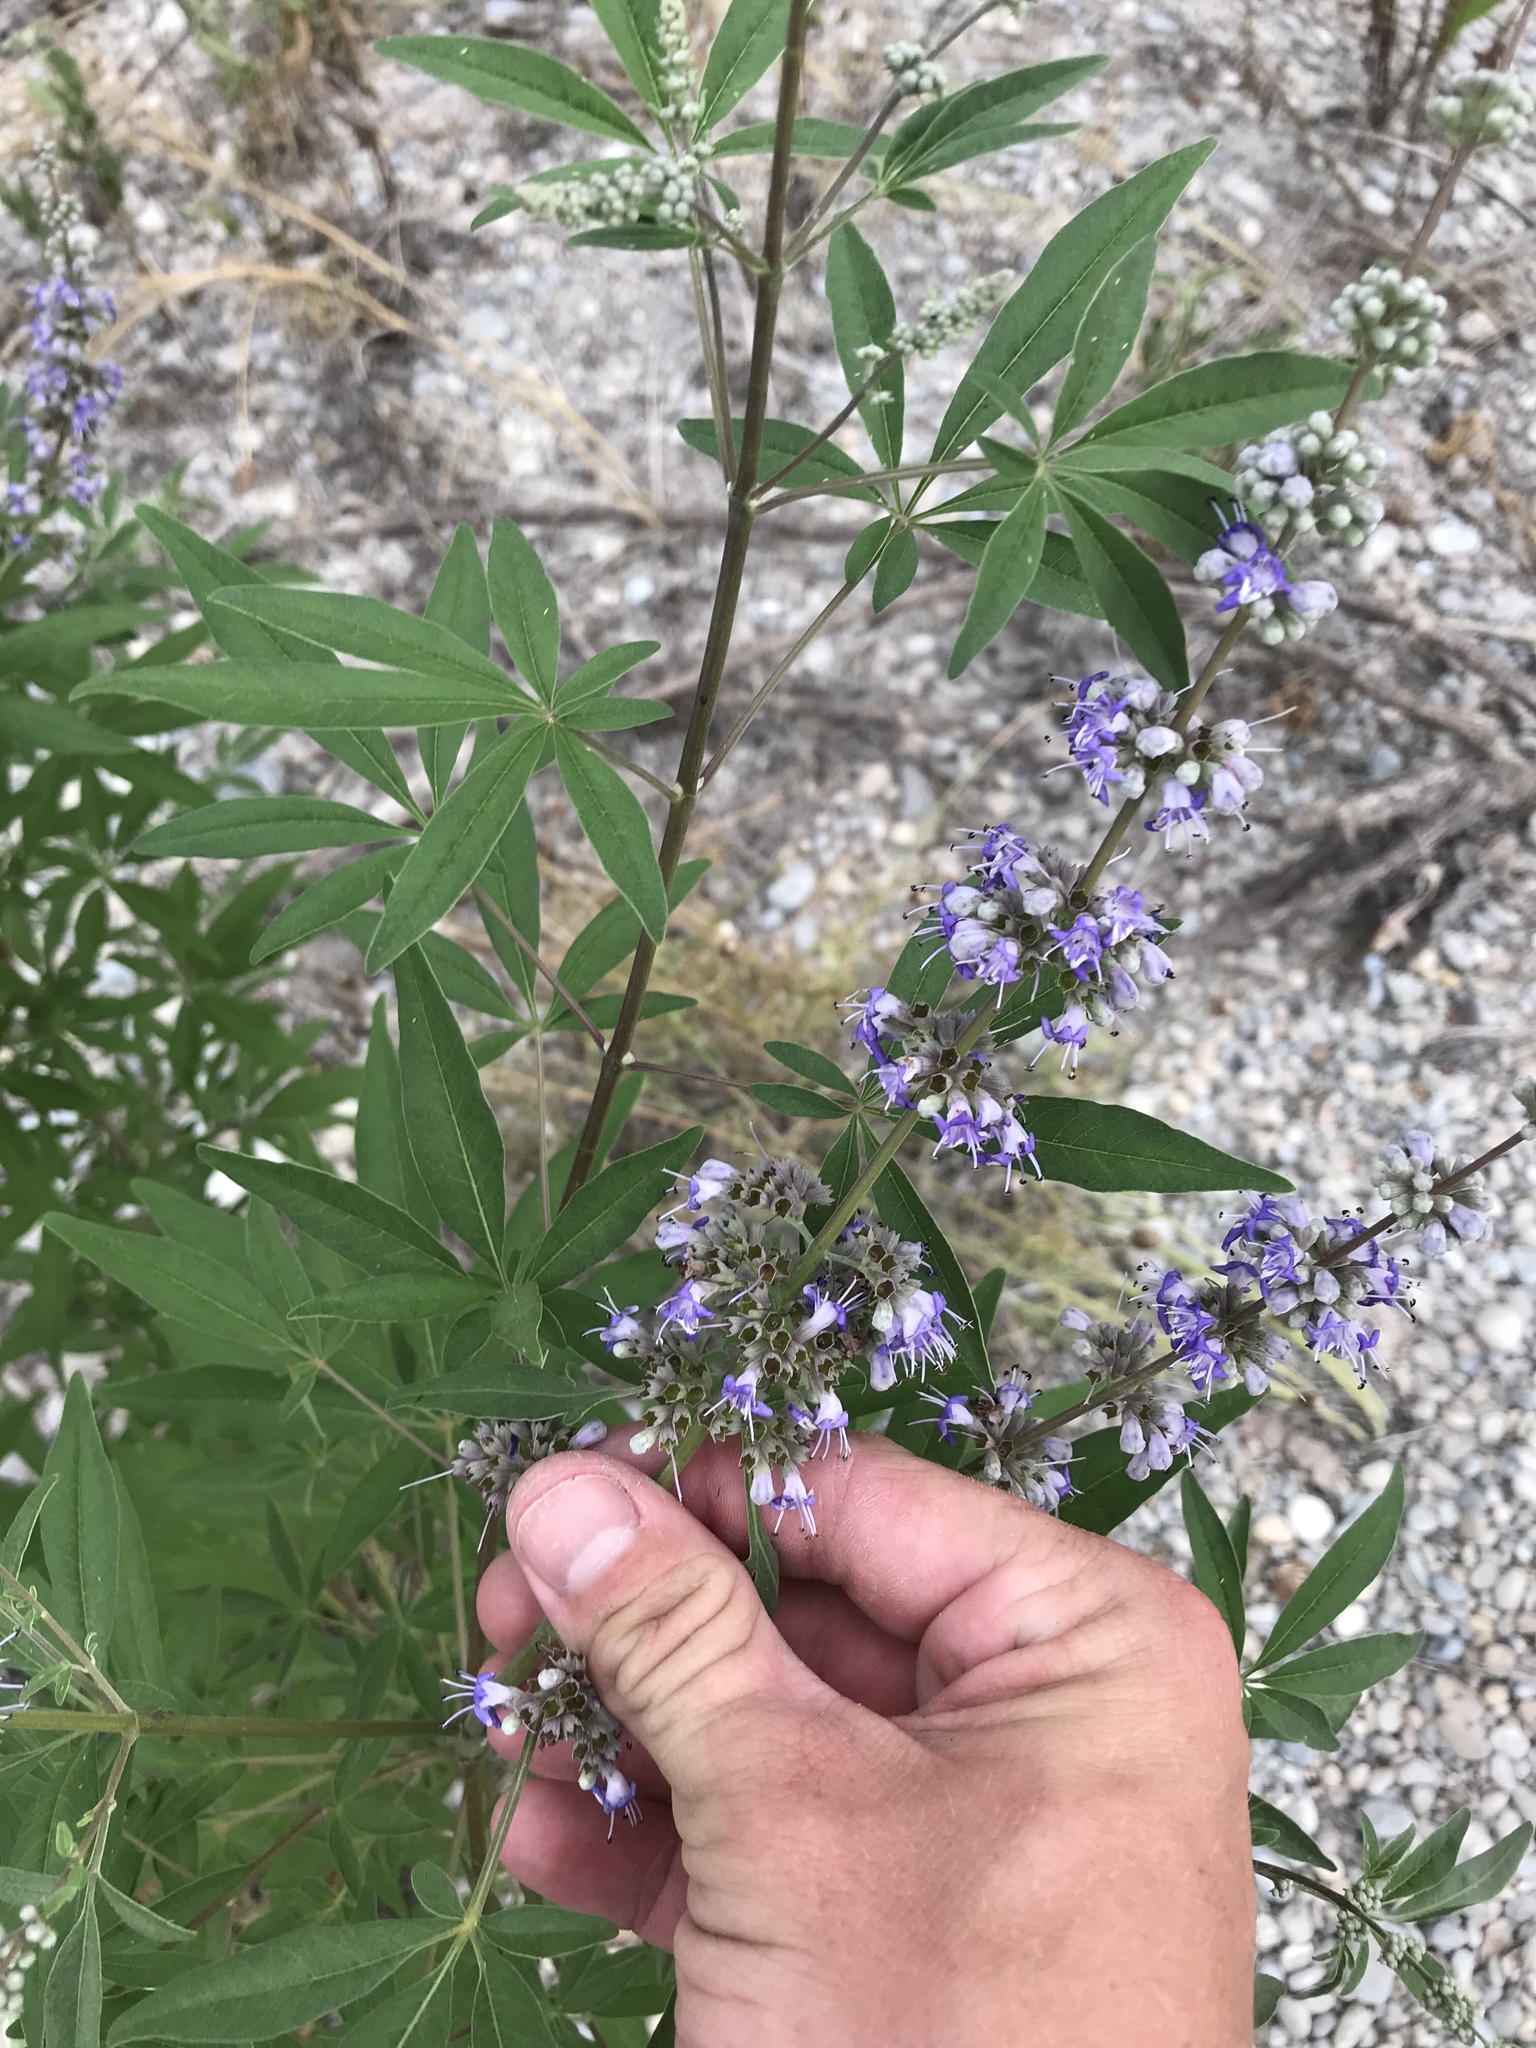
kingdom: Plantae
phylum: Tracheophyta
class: Magnoliopsida
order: Lamiales
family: Lamiaceae
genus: Vitex
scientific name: Vitex agnus-castus
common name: Chasteberry
